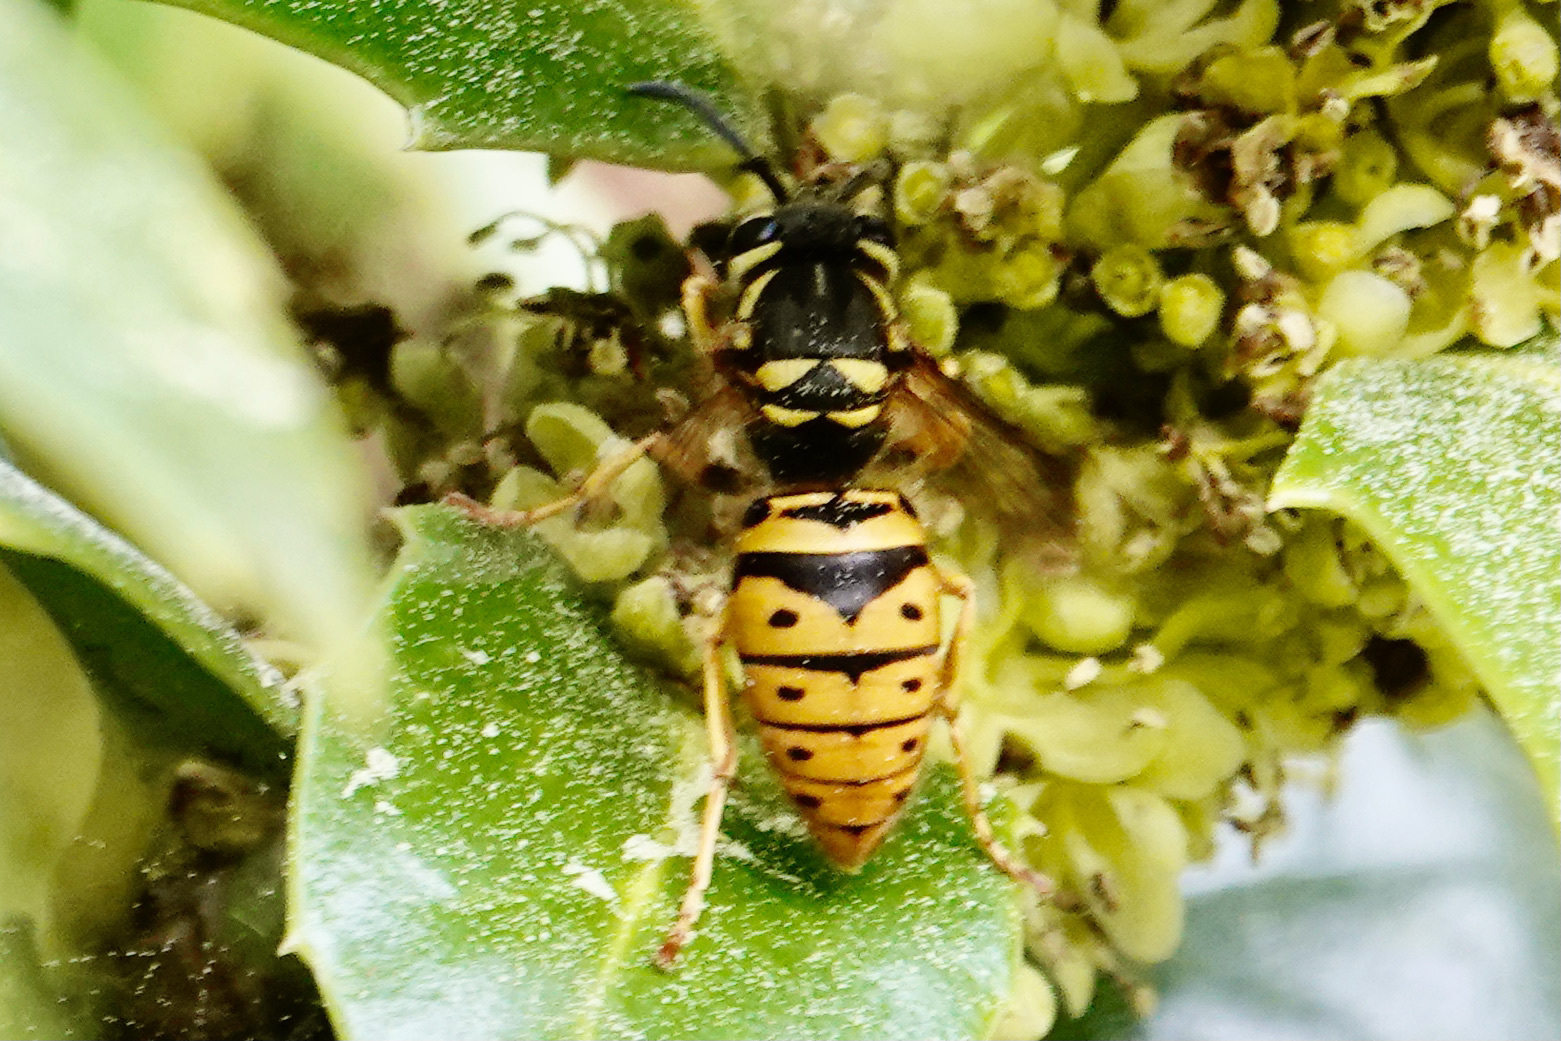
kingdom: Animalia
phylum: Arthropoda
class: Insecta
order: Hymenoptera
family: Vespidae
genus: Vespula
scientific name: Vespula maculifrons
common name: Eastern yellowjacket
